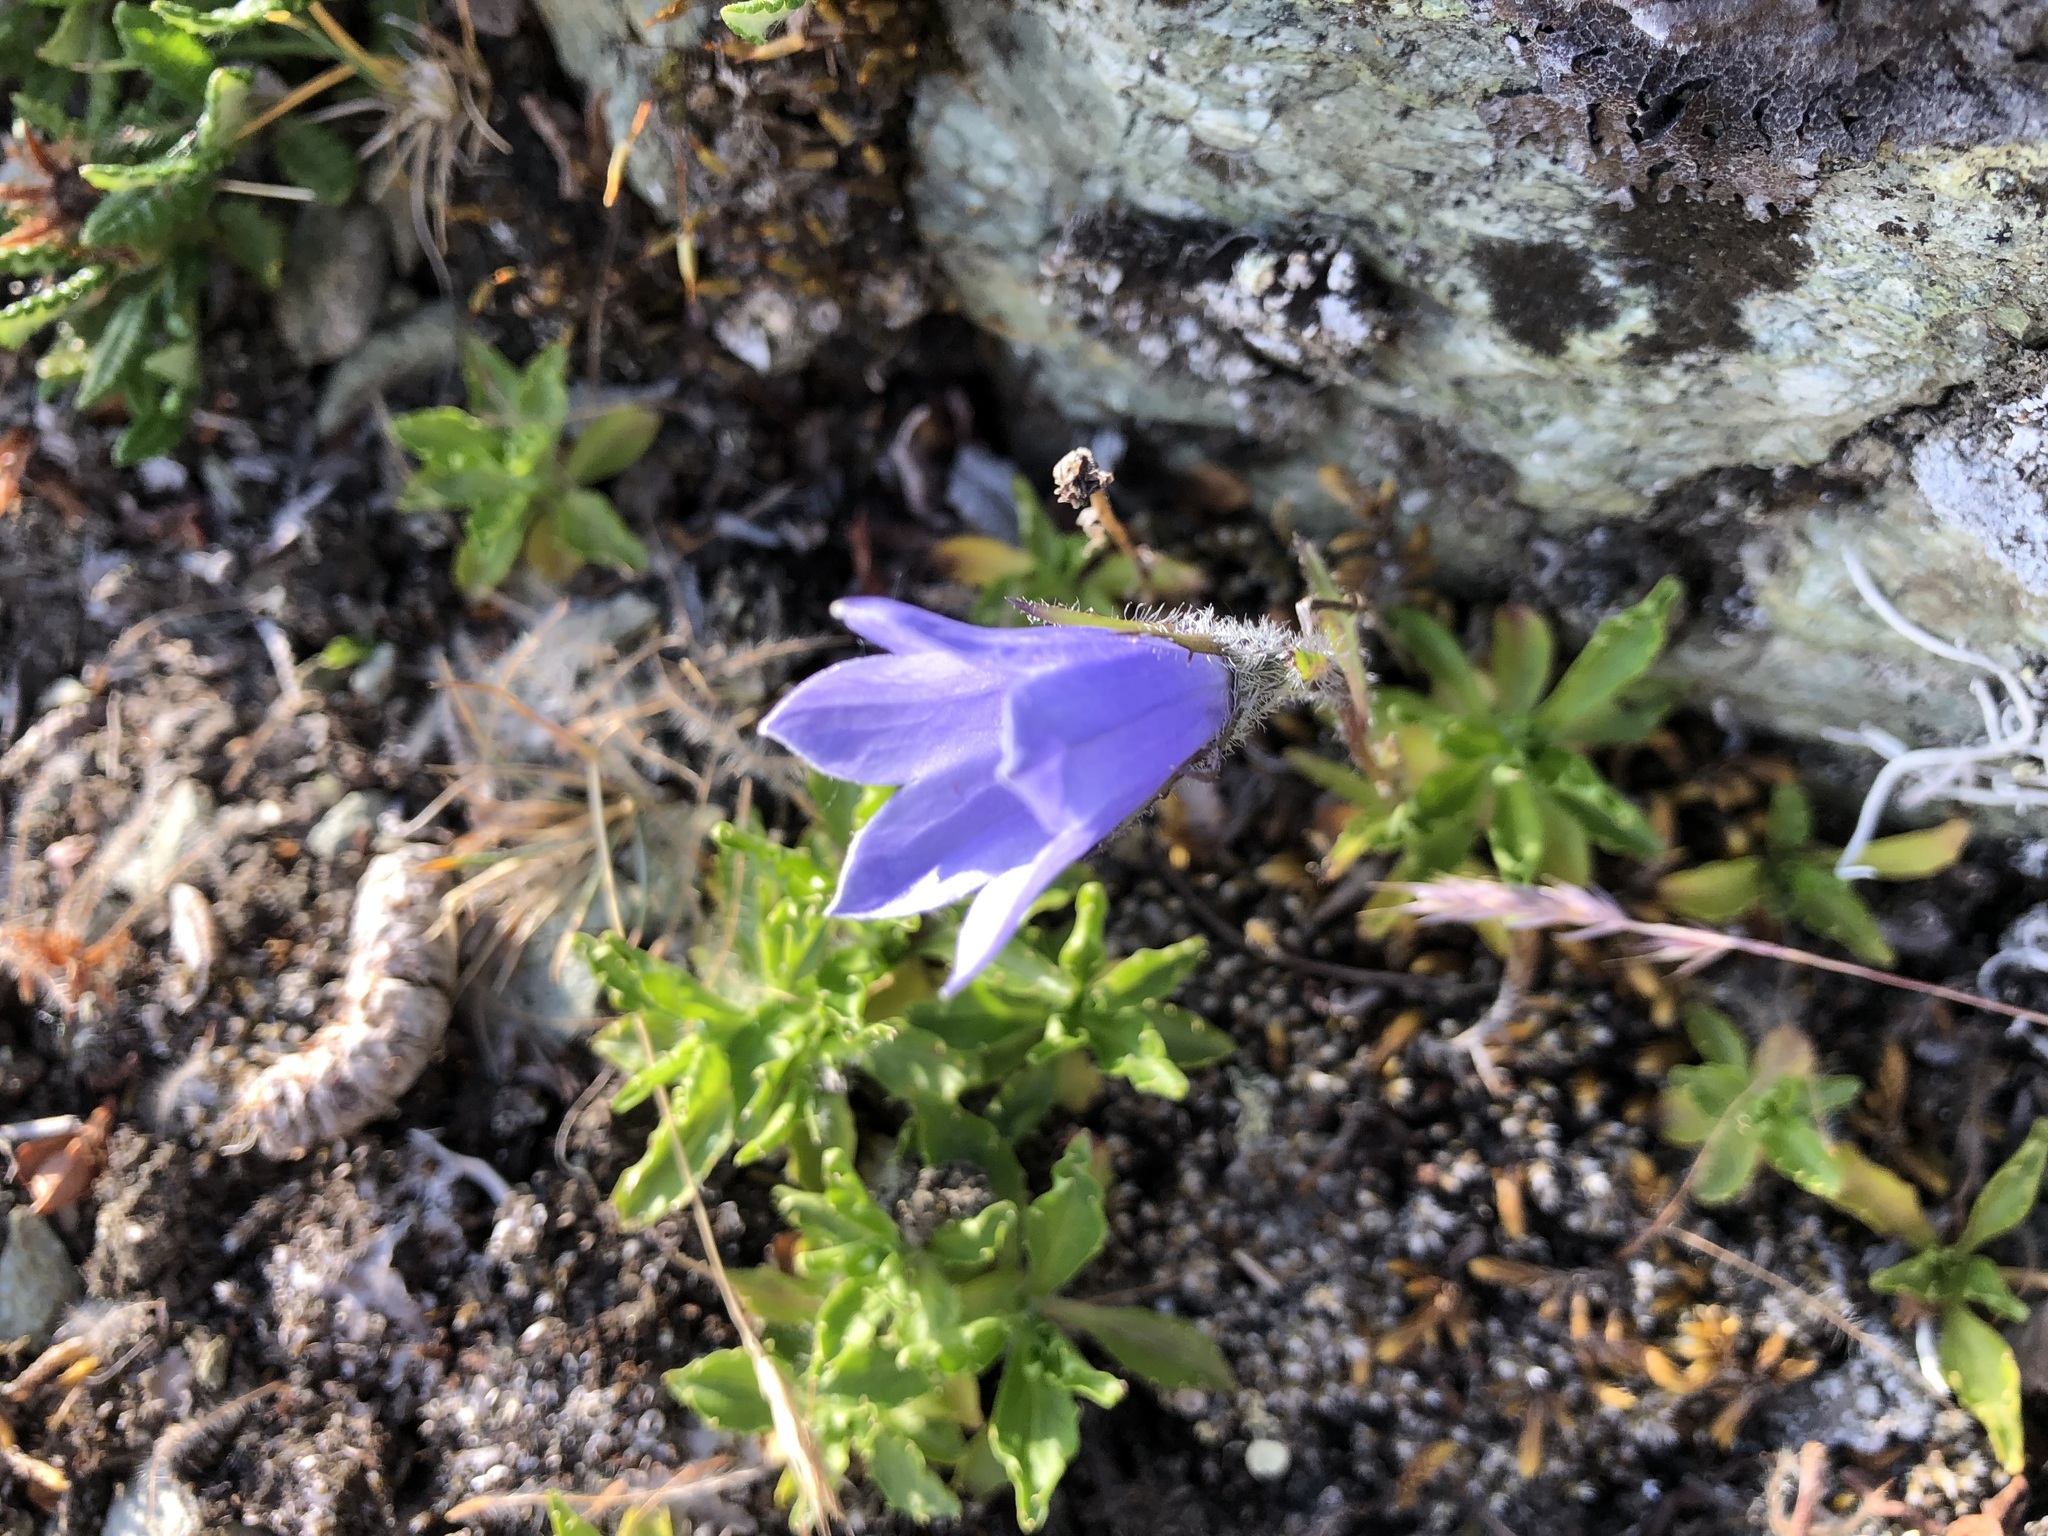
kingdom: Plantae
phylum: Tracheophyta
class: Magnoliopsida
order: Asterales
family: Campanulaceae
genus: Campanula
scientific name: Campanula lasiocarpa
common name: Mountain harebell
